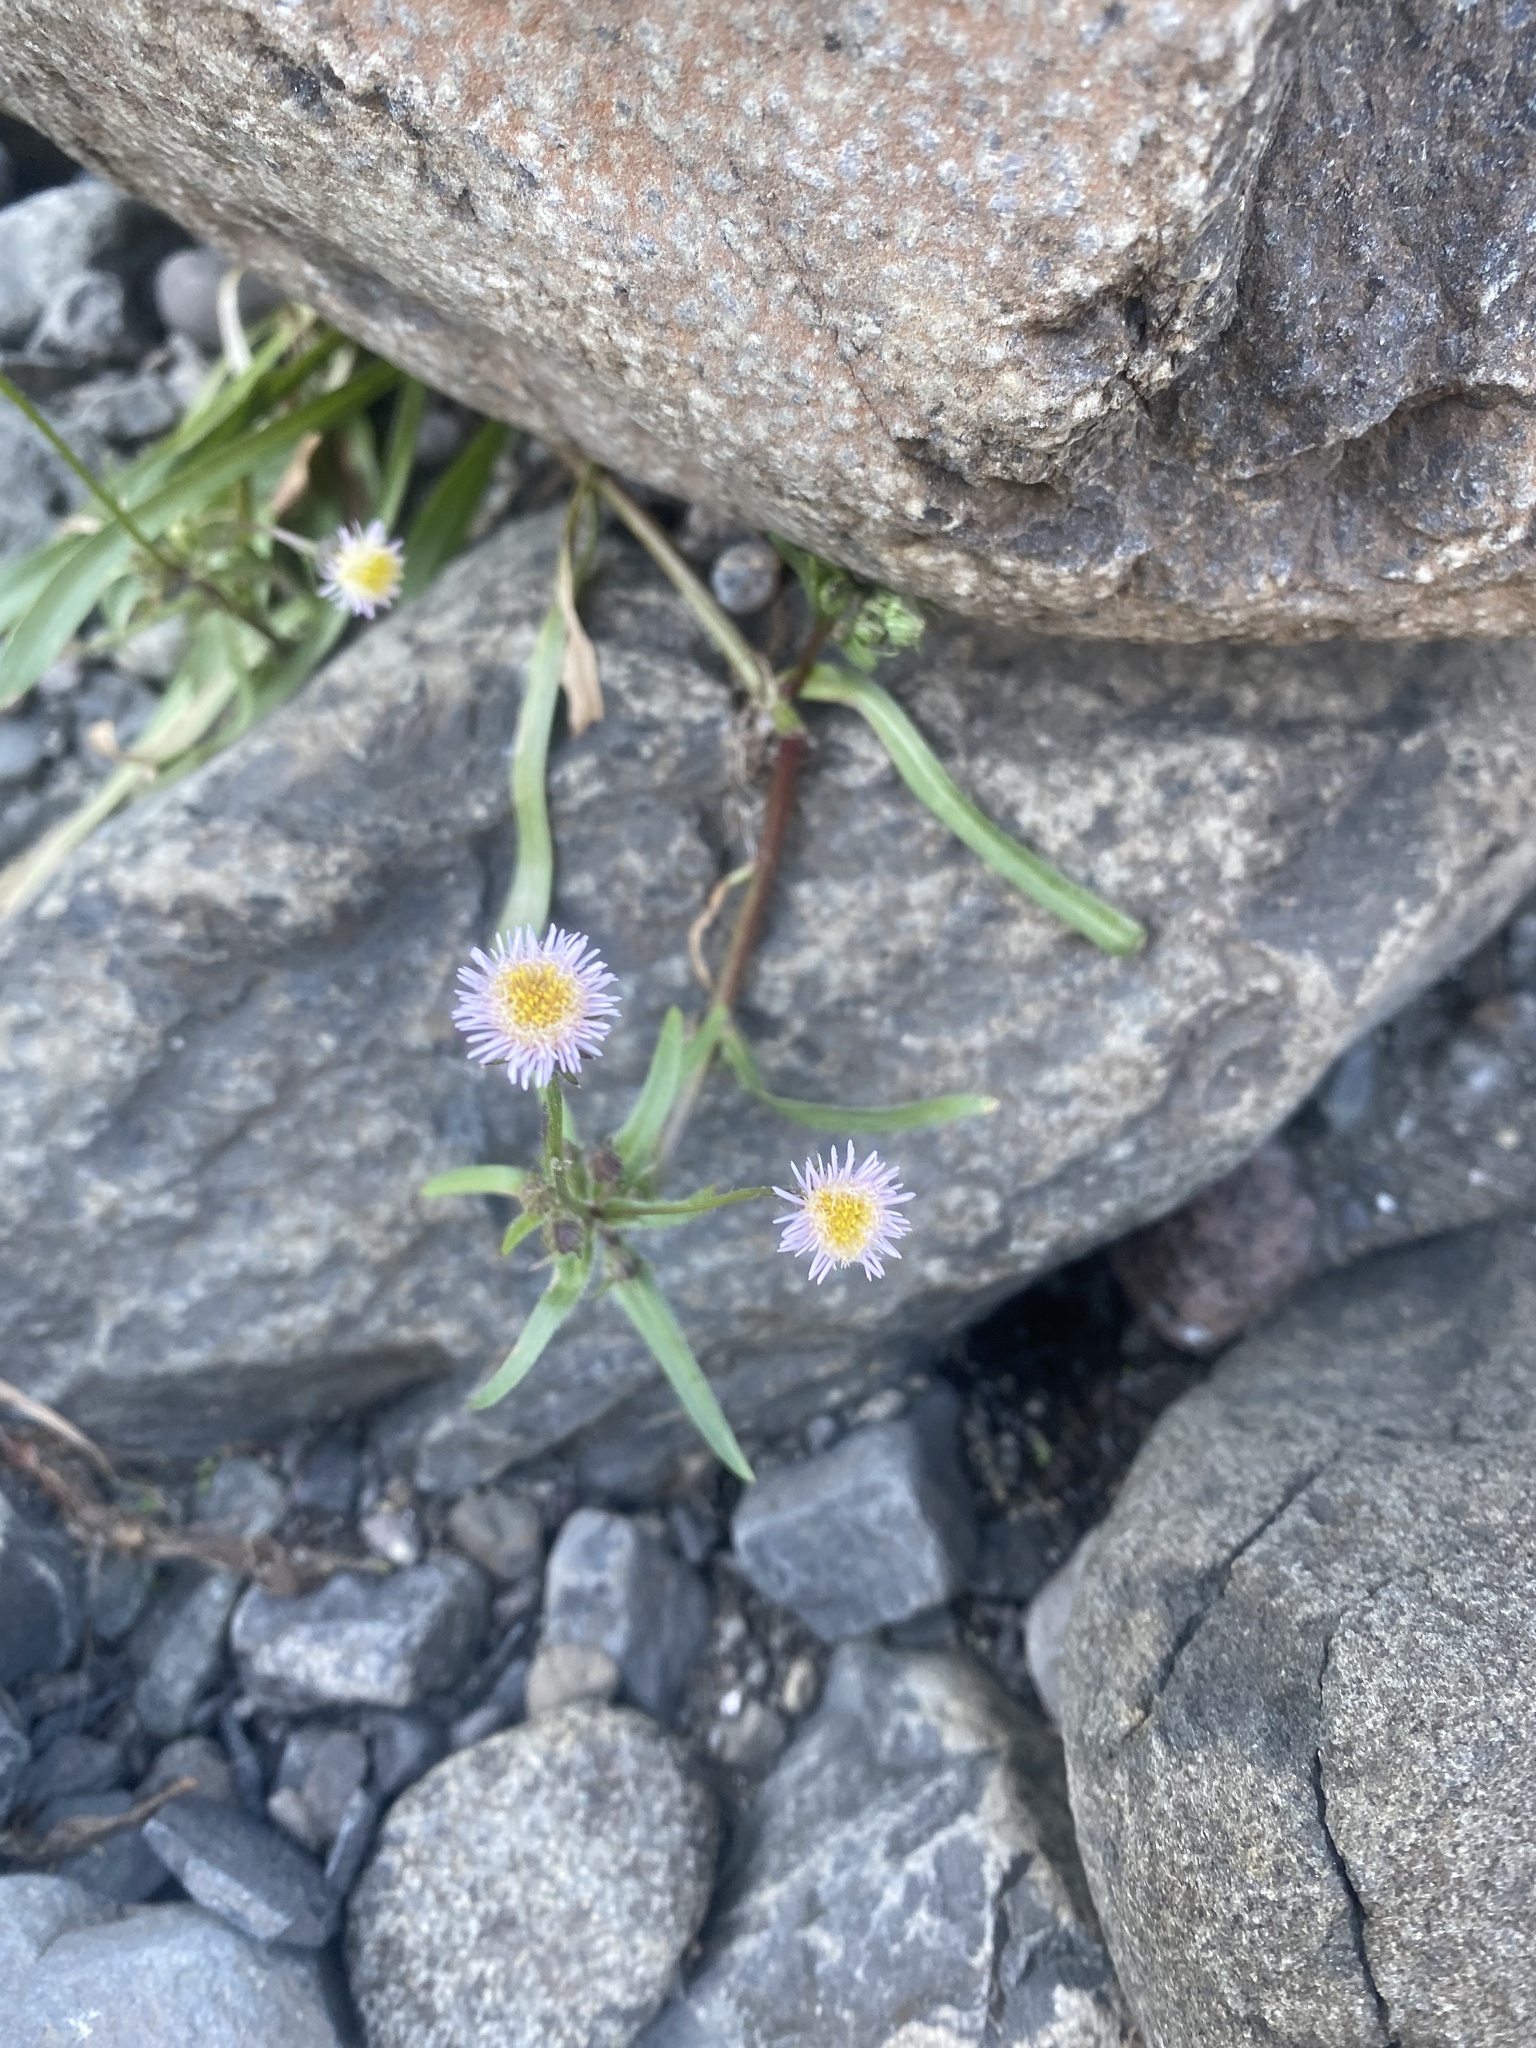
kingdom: Plantae
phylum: Tracheophyta
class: Magnoliopsida
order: Asterales
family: Asteraceae
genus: Erigeron
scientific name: Erigeron acris
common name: Blue fleabane
